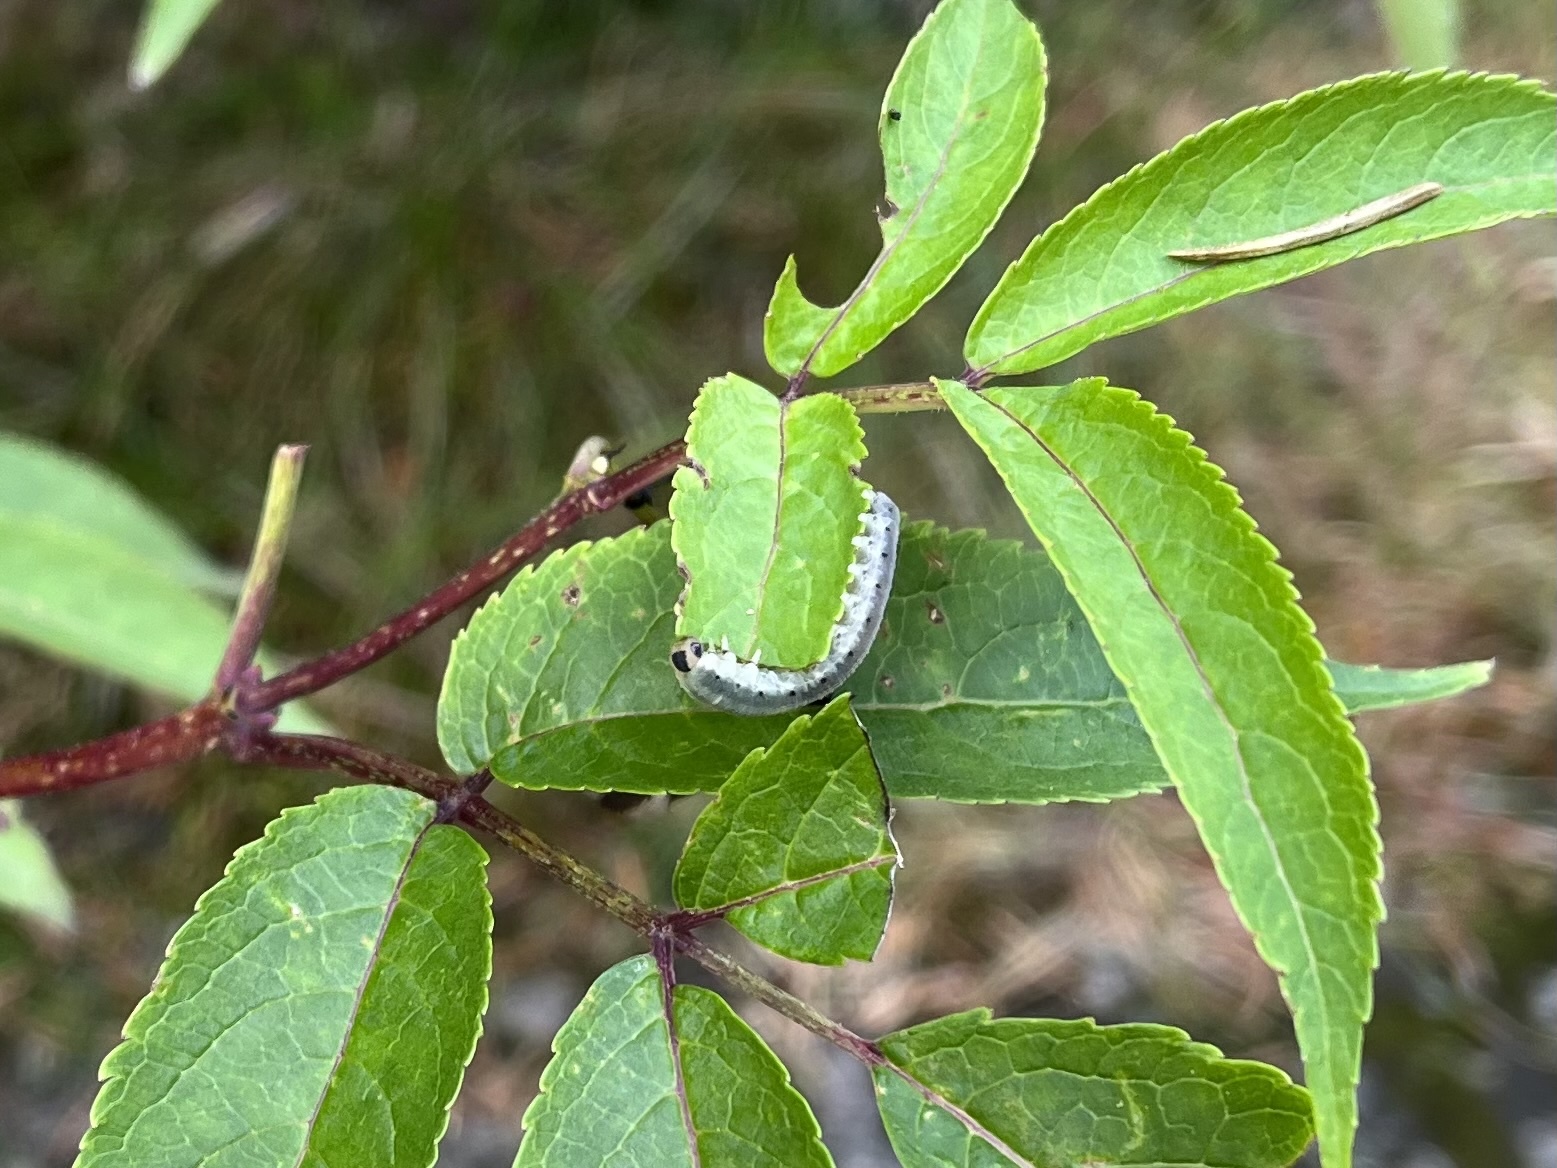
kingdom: Animalia
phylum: Arthropoda
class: Insecta
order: Hymenoptera
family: Tenthredinidae
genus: Macrophya
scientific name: Macrophya alboannulata
